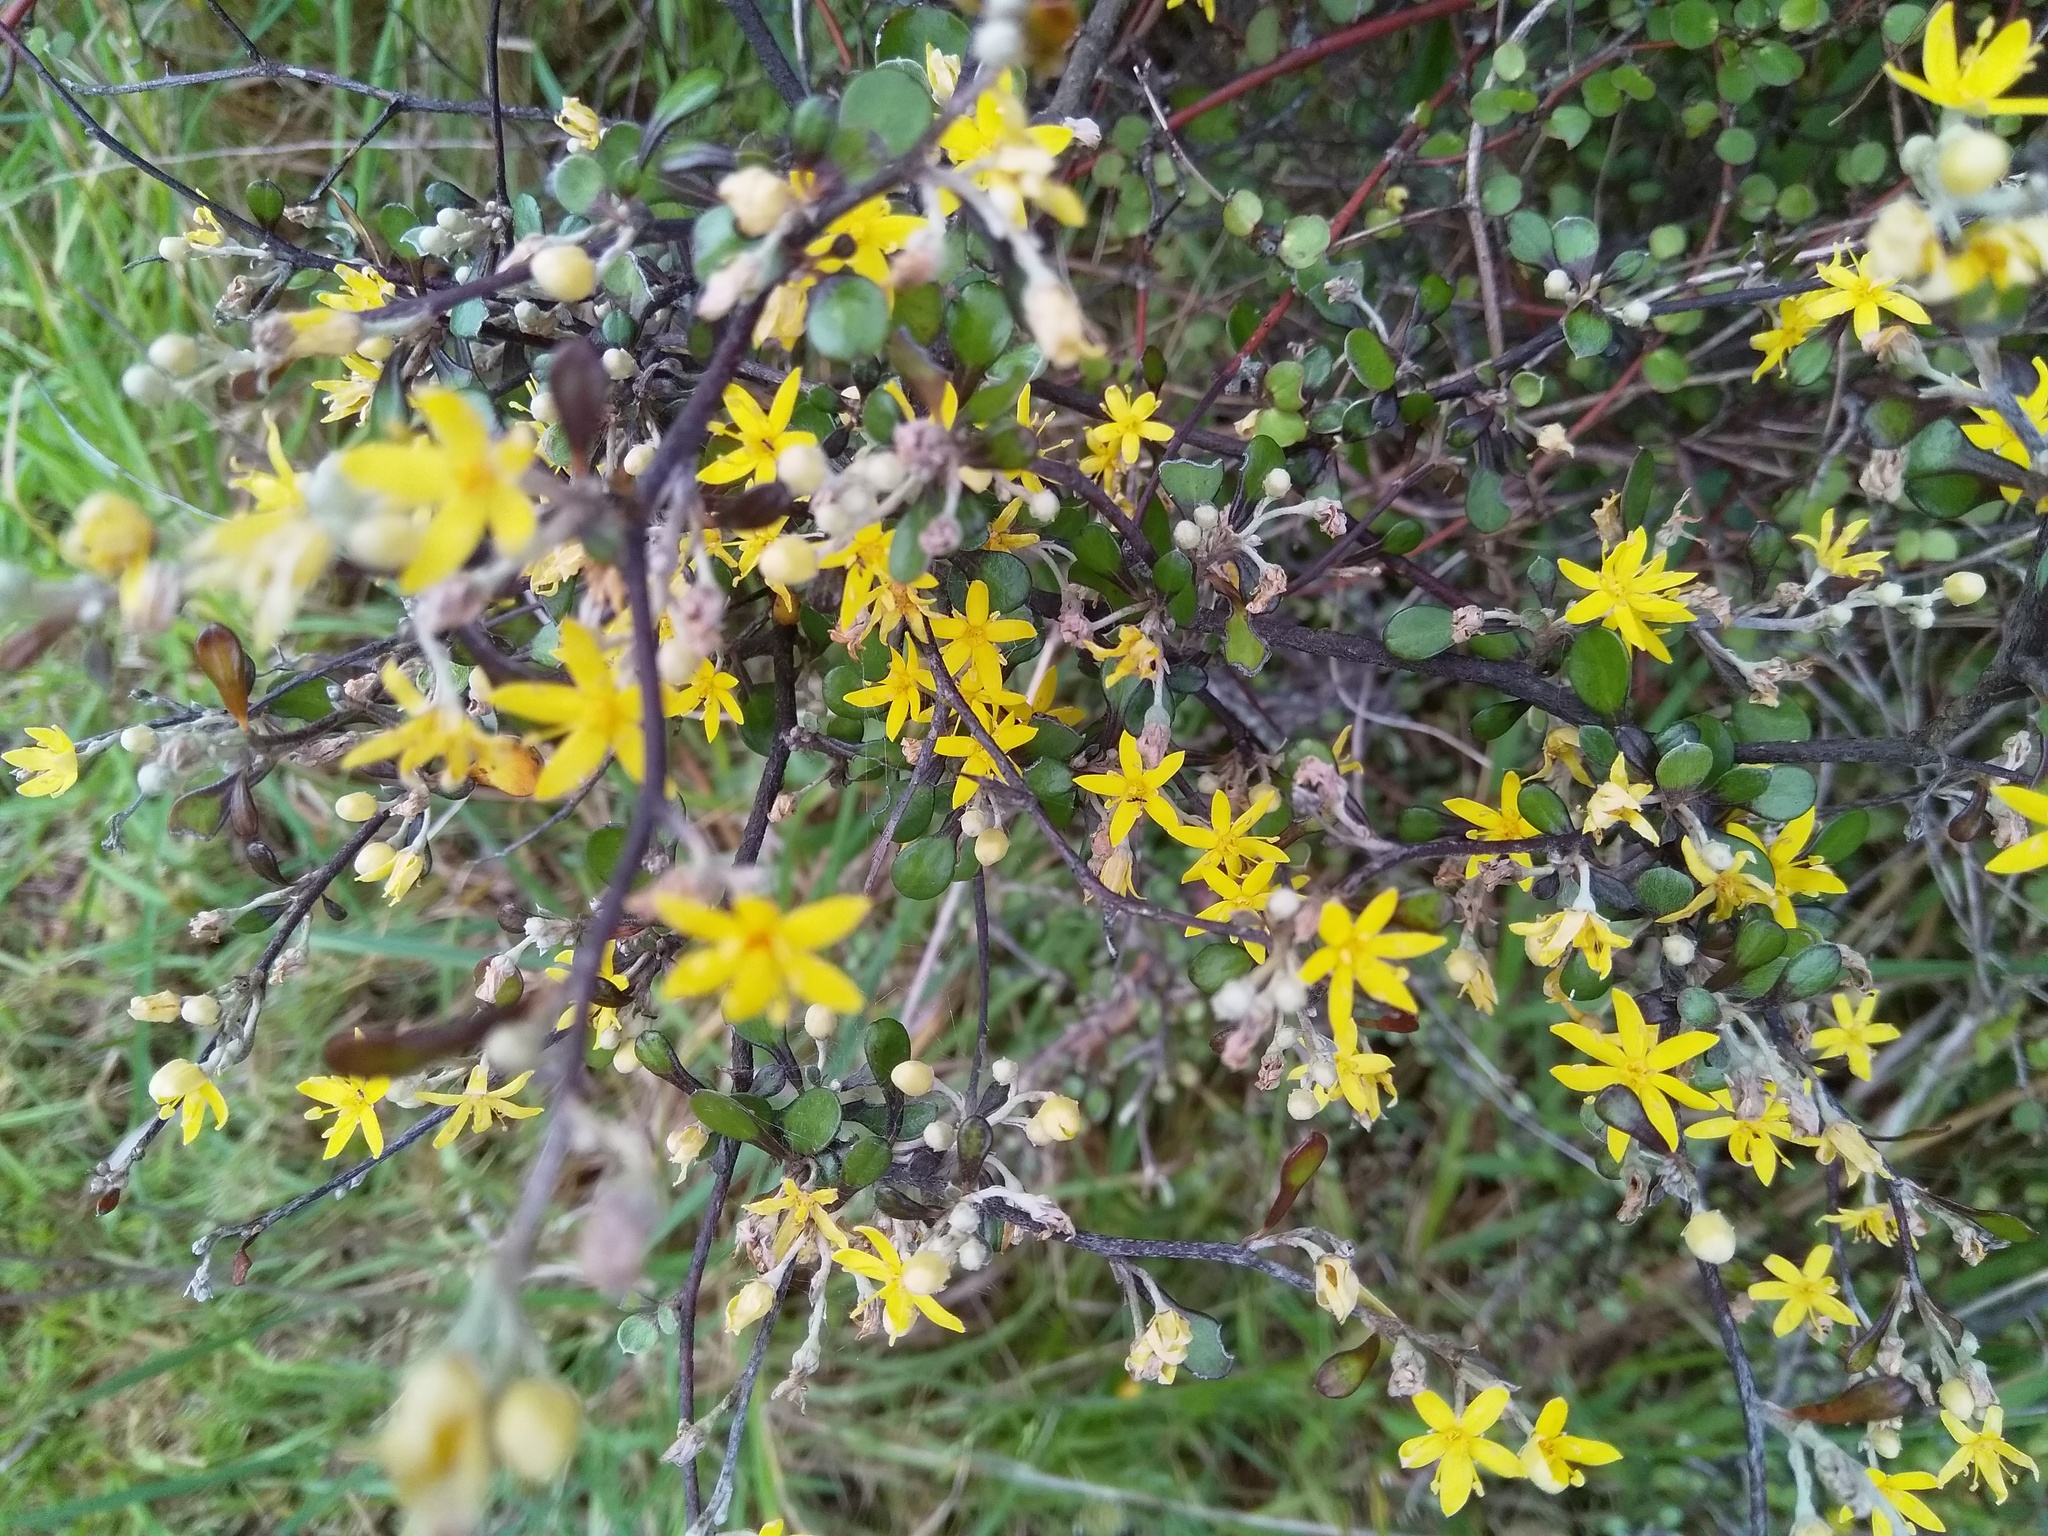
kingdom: Plantae
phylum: Tracheophyta
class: Magnoliopsida
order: Asterales
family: Argophyllaceae
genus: Corokia
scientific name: Corokia cotoneaster
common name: Wire nettingbush
